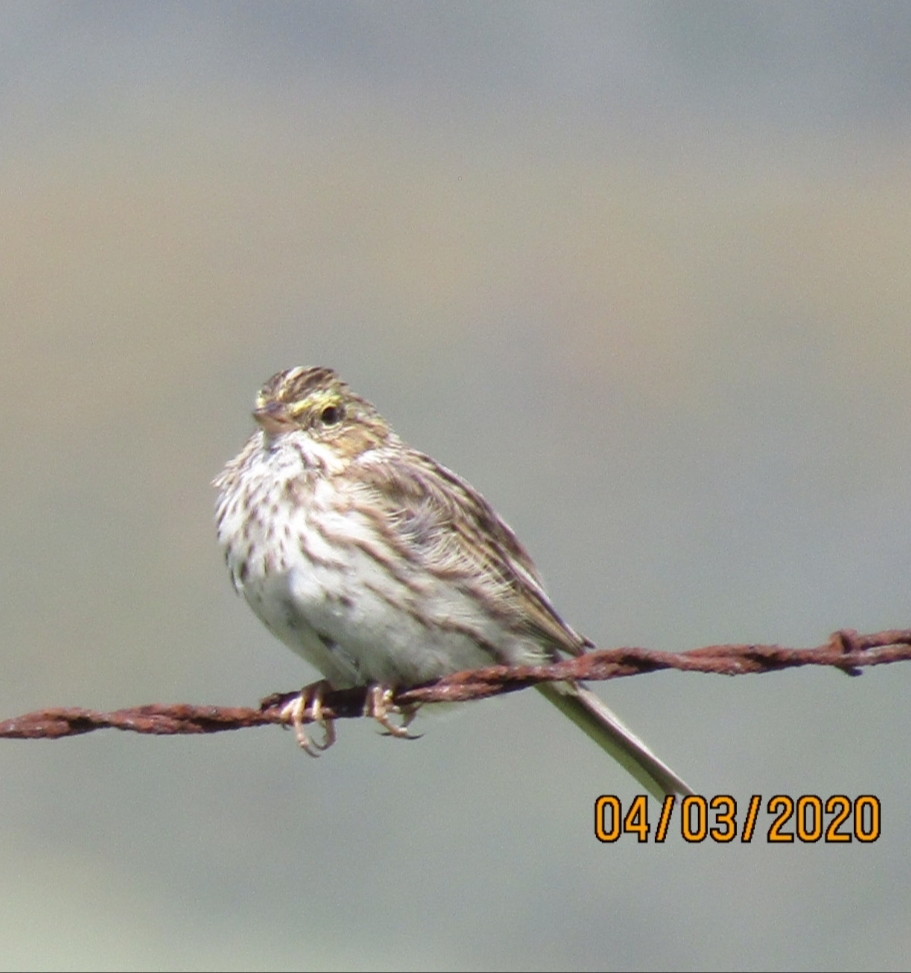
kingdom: Animalia
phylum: Chordata
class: Aves
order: Passeriformes
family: Passerellidae
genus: Passerculus
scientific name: Passerculus sandwichensis
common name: Savannah sparrow
